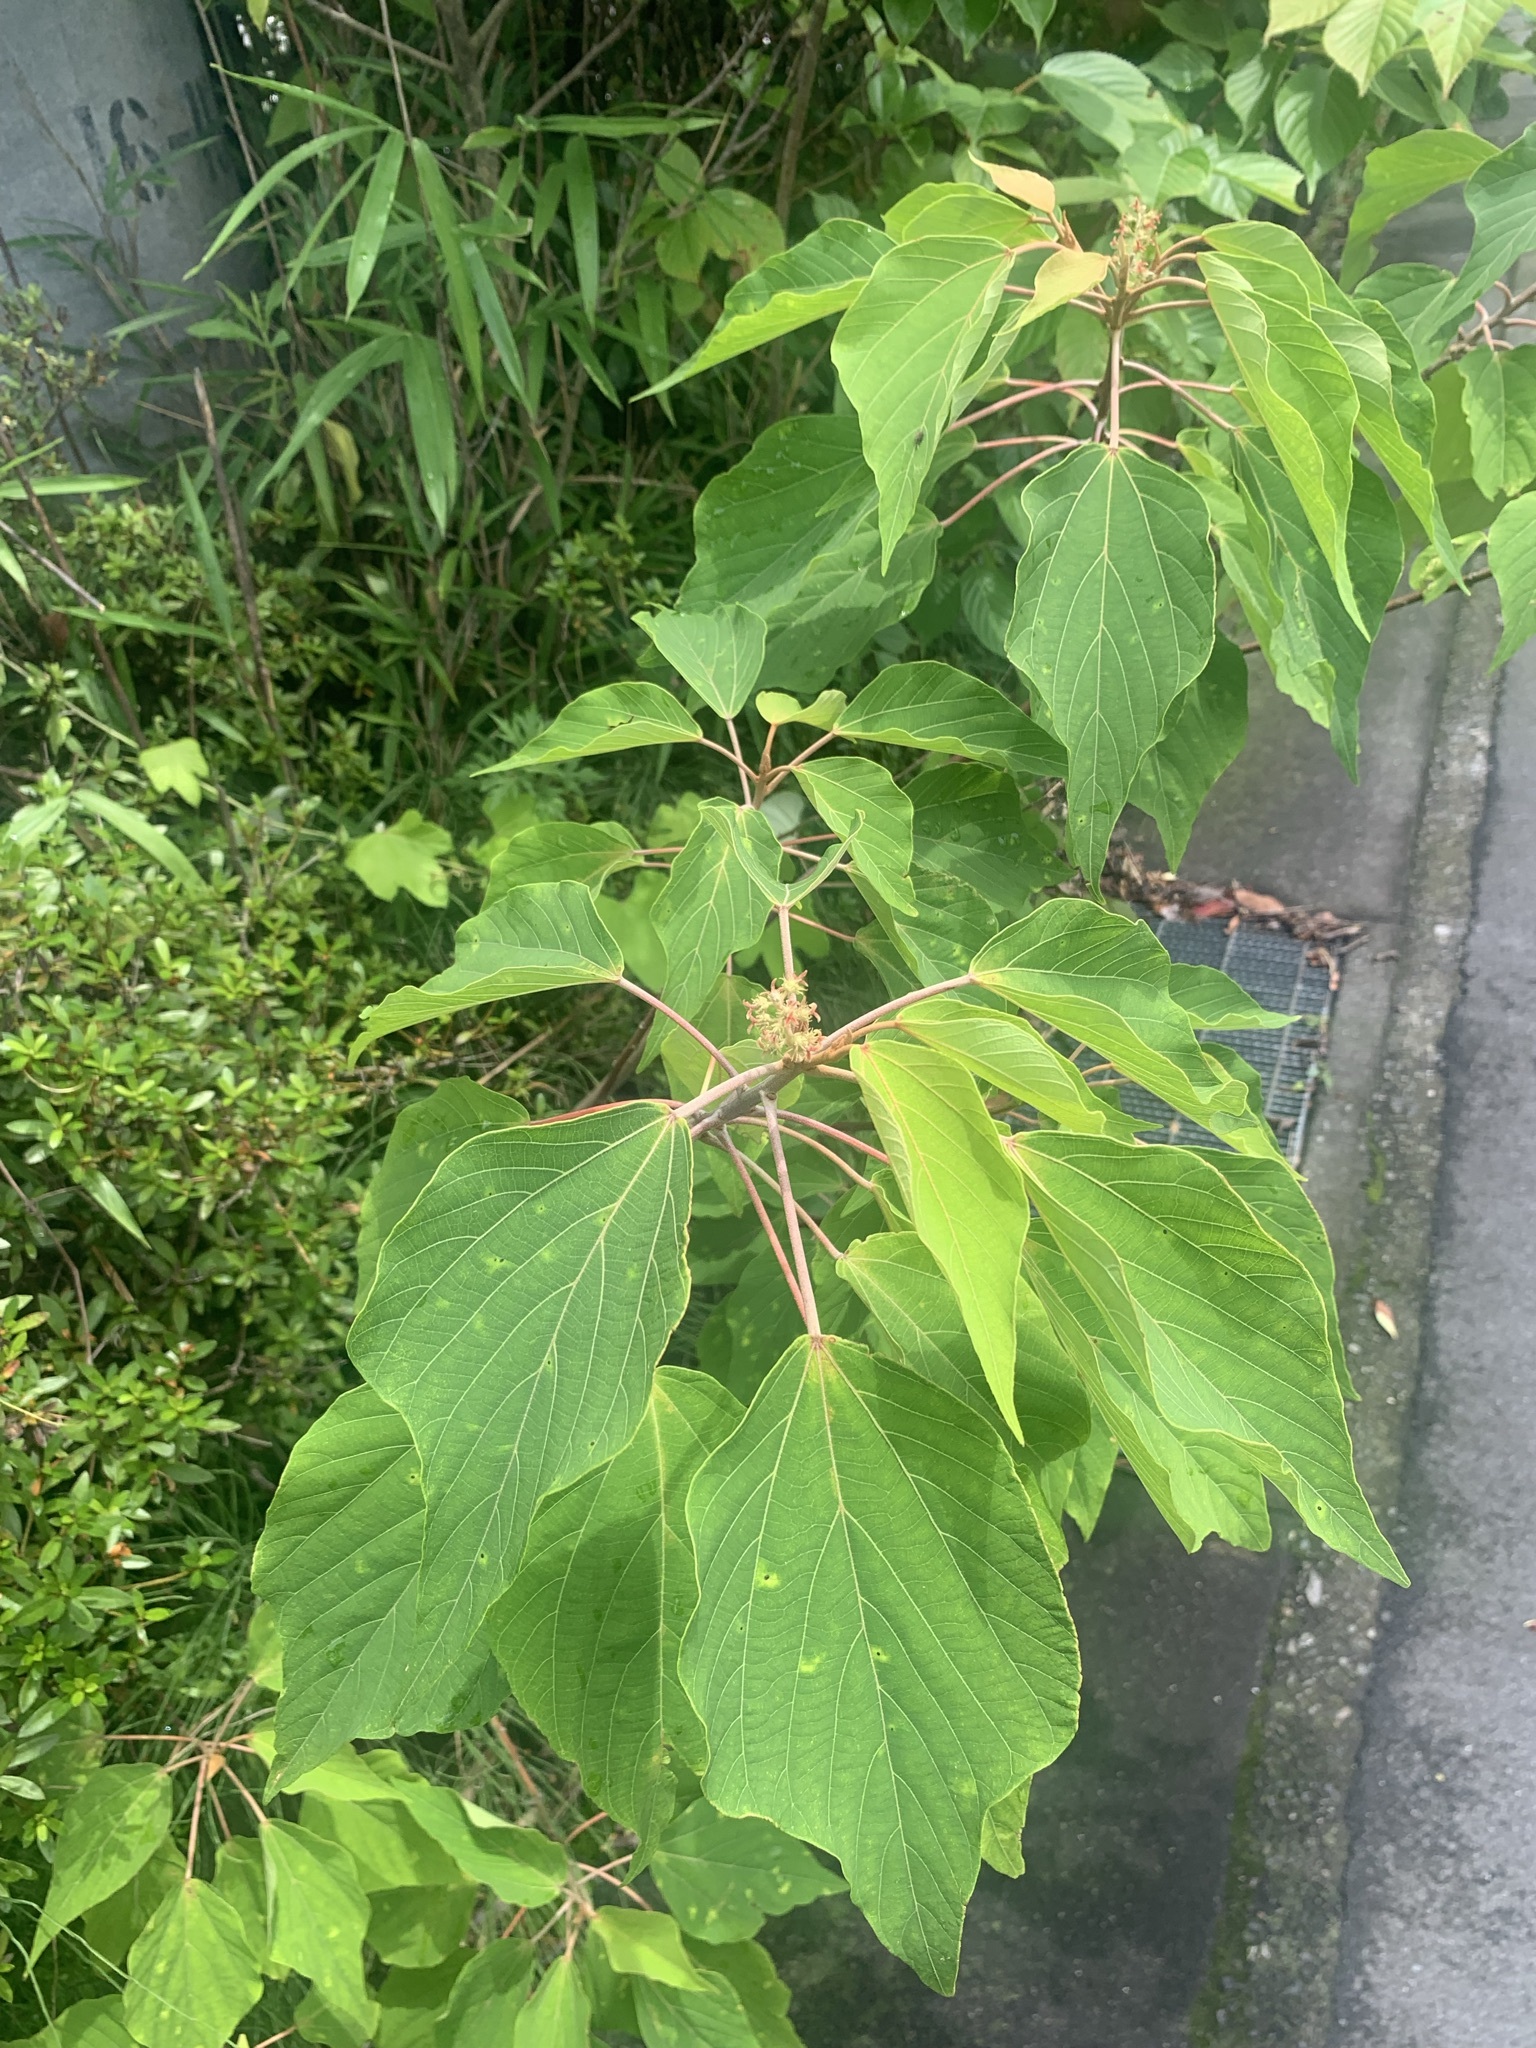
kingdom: Plantae
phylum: Tracheophyta
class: Magnoliopsida
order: Malpighiales
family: Euphorbiaceae
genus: Mallotus
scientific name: Mallotus japonicus
